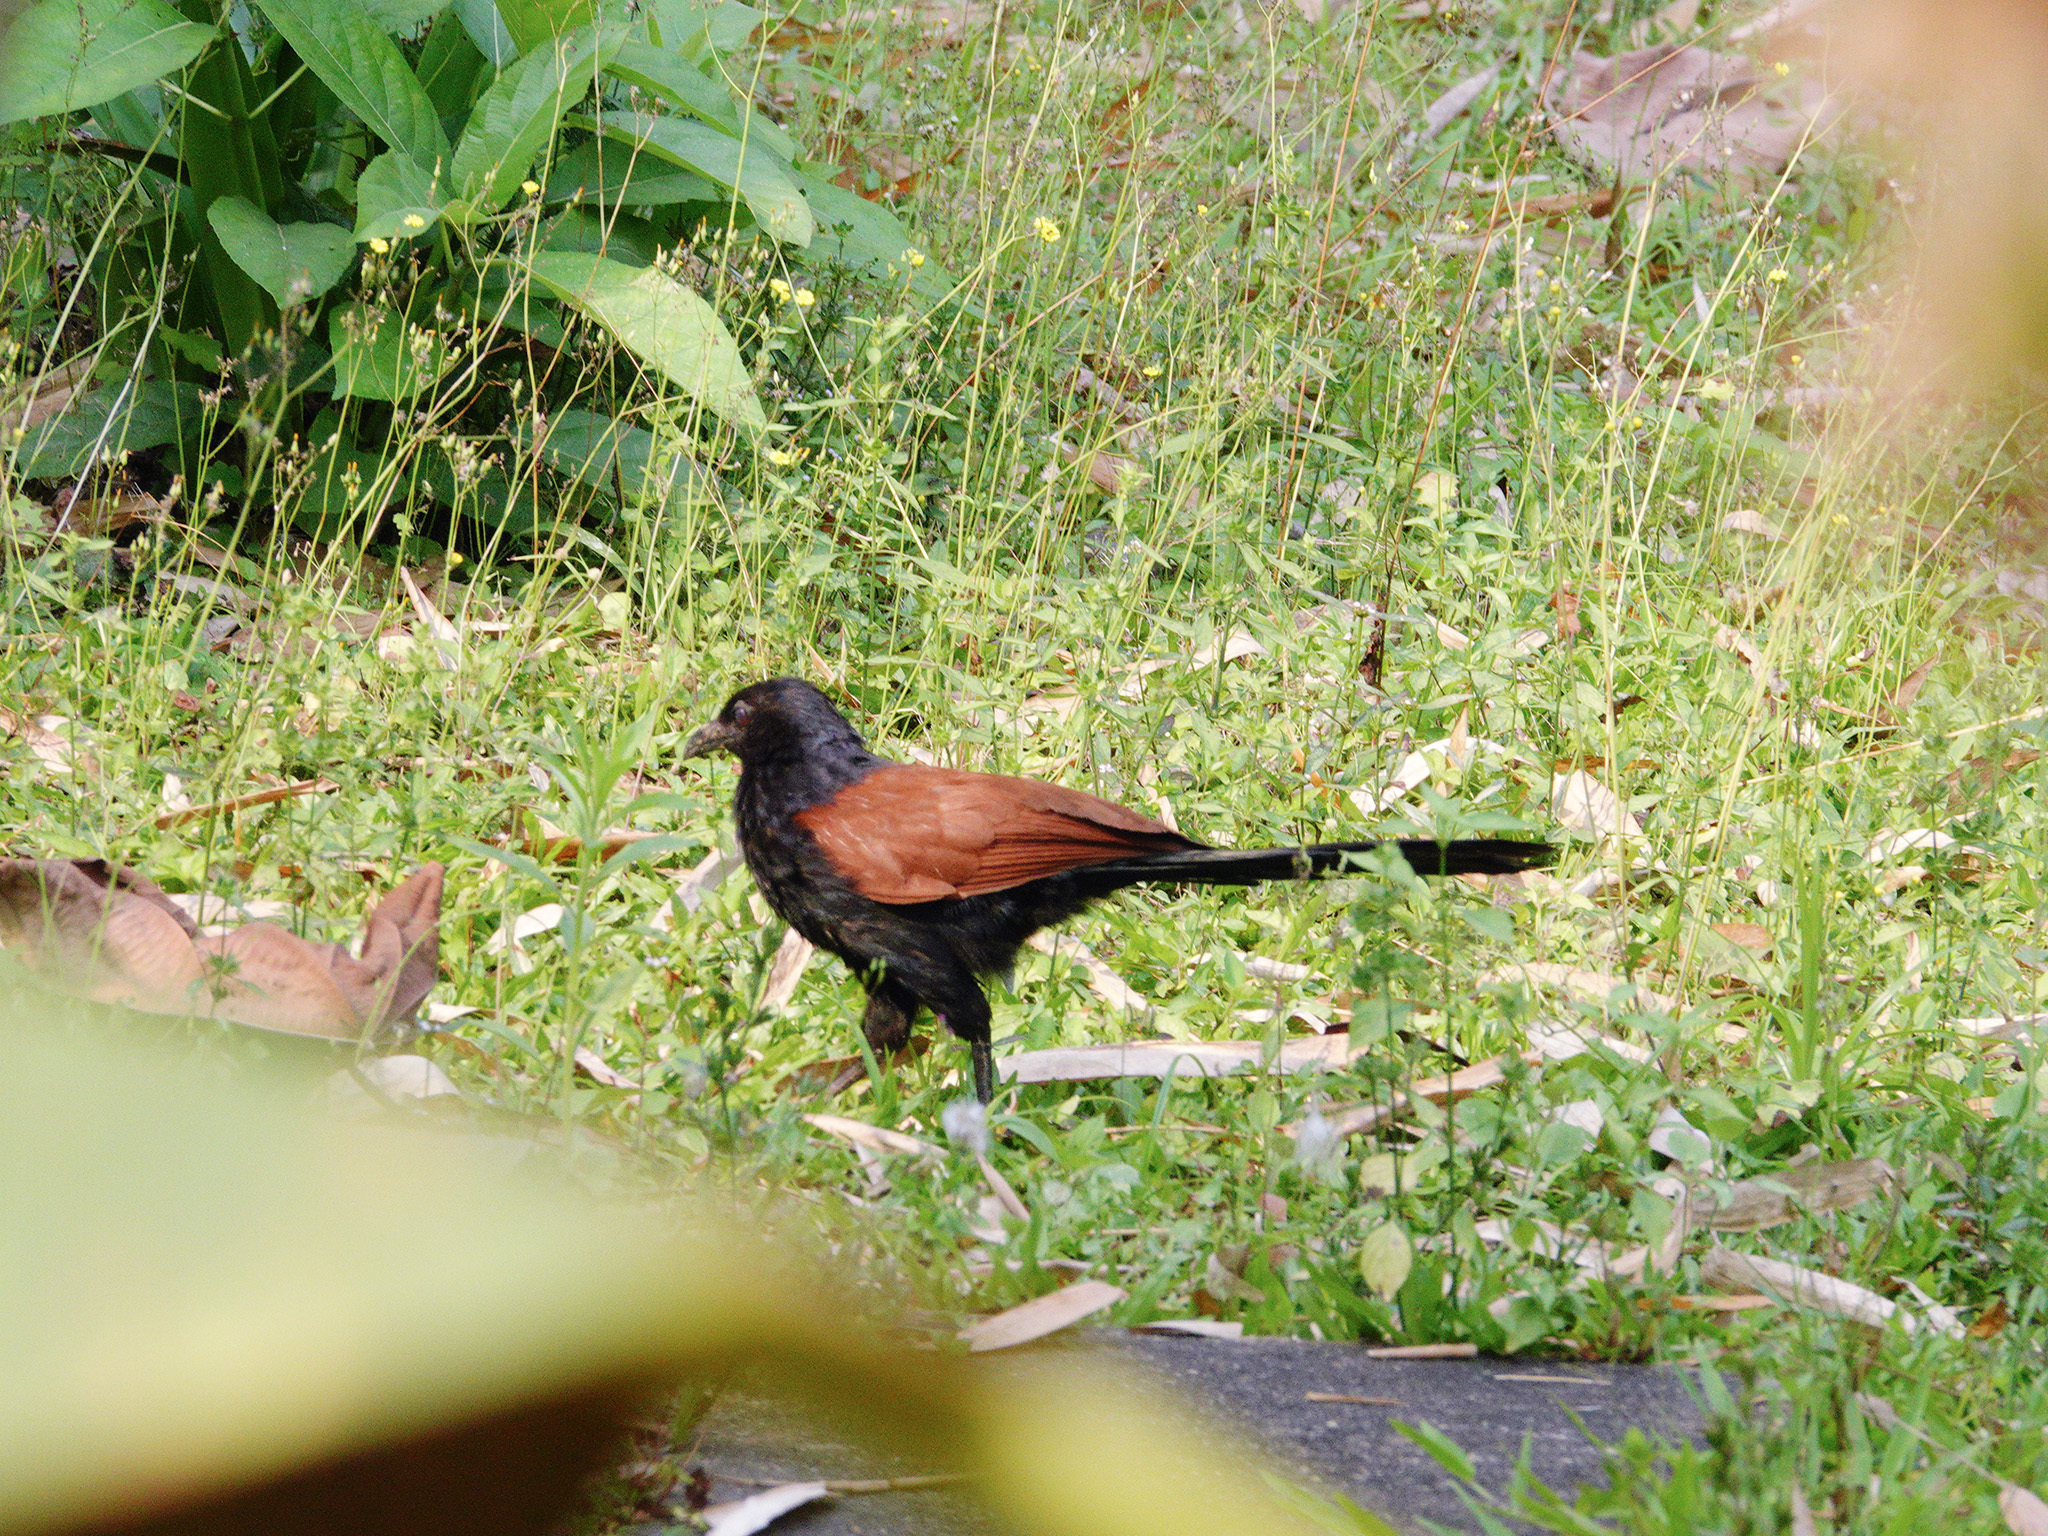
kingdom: Animalia
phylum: Chordata
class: Aves
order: Cuculiformes
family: Cuculidae
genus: Centropus
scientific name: Centropus sinensis
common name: Greater coucal
